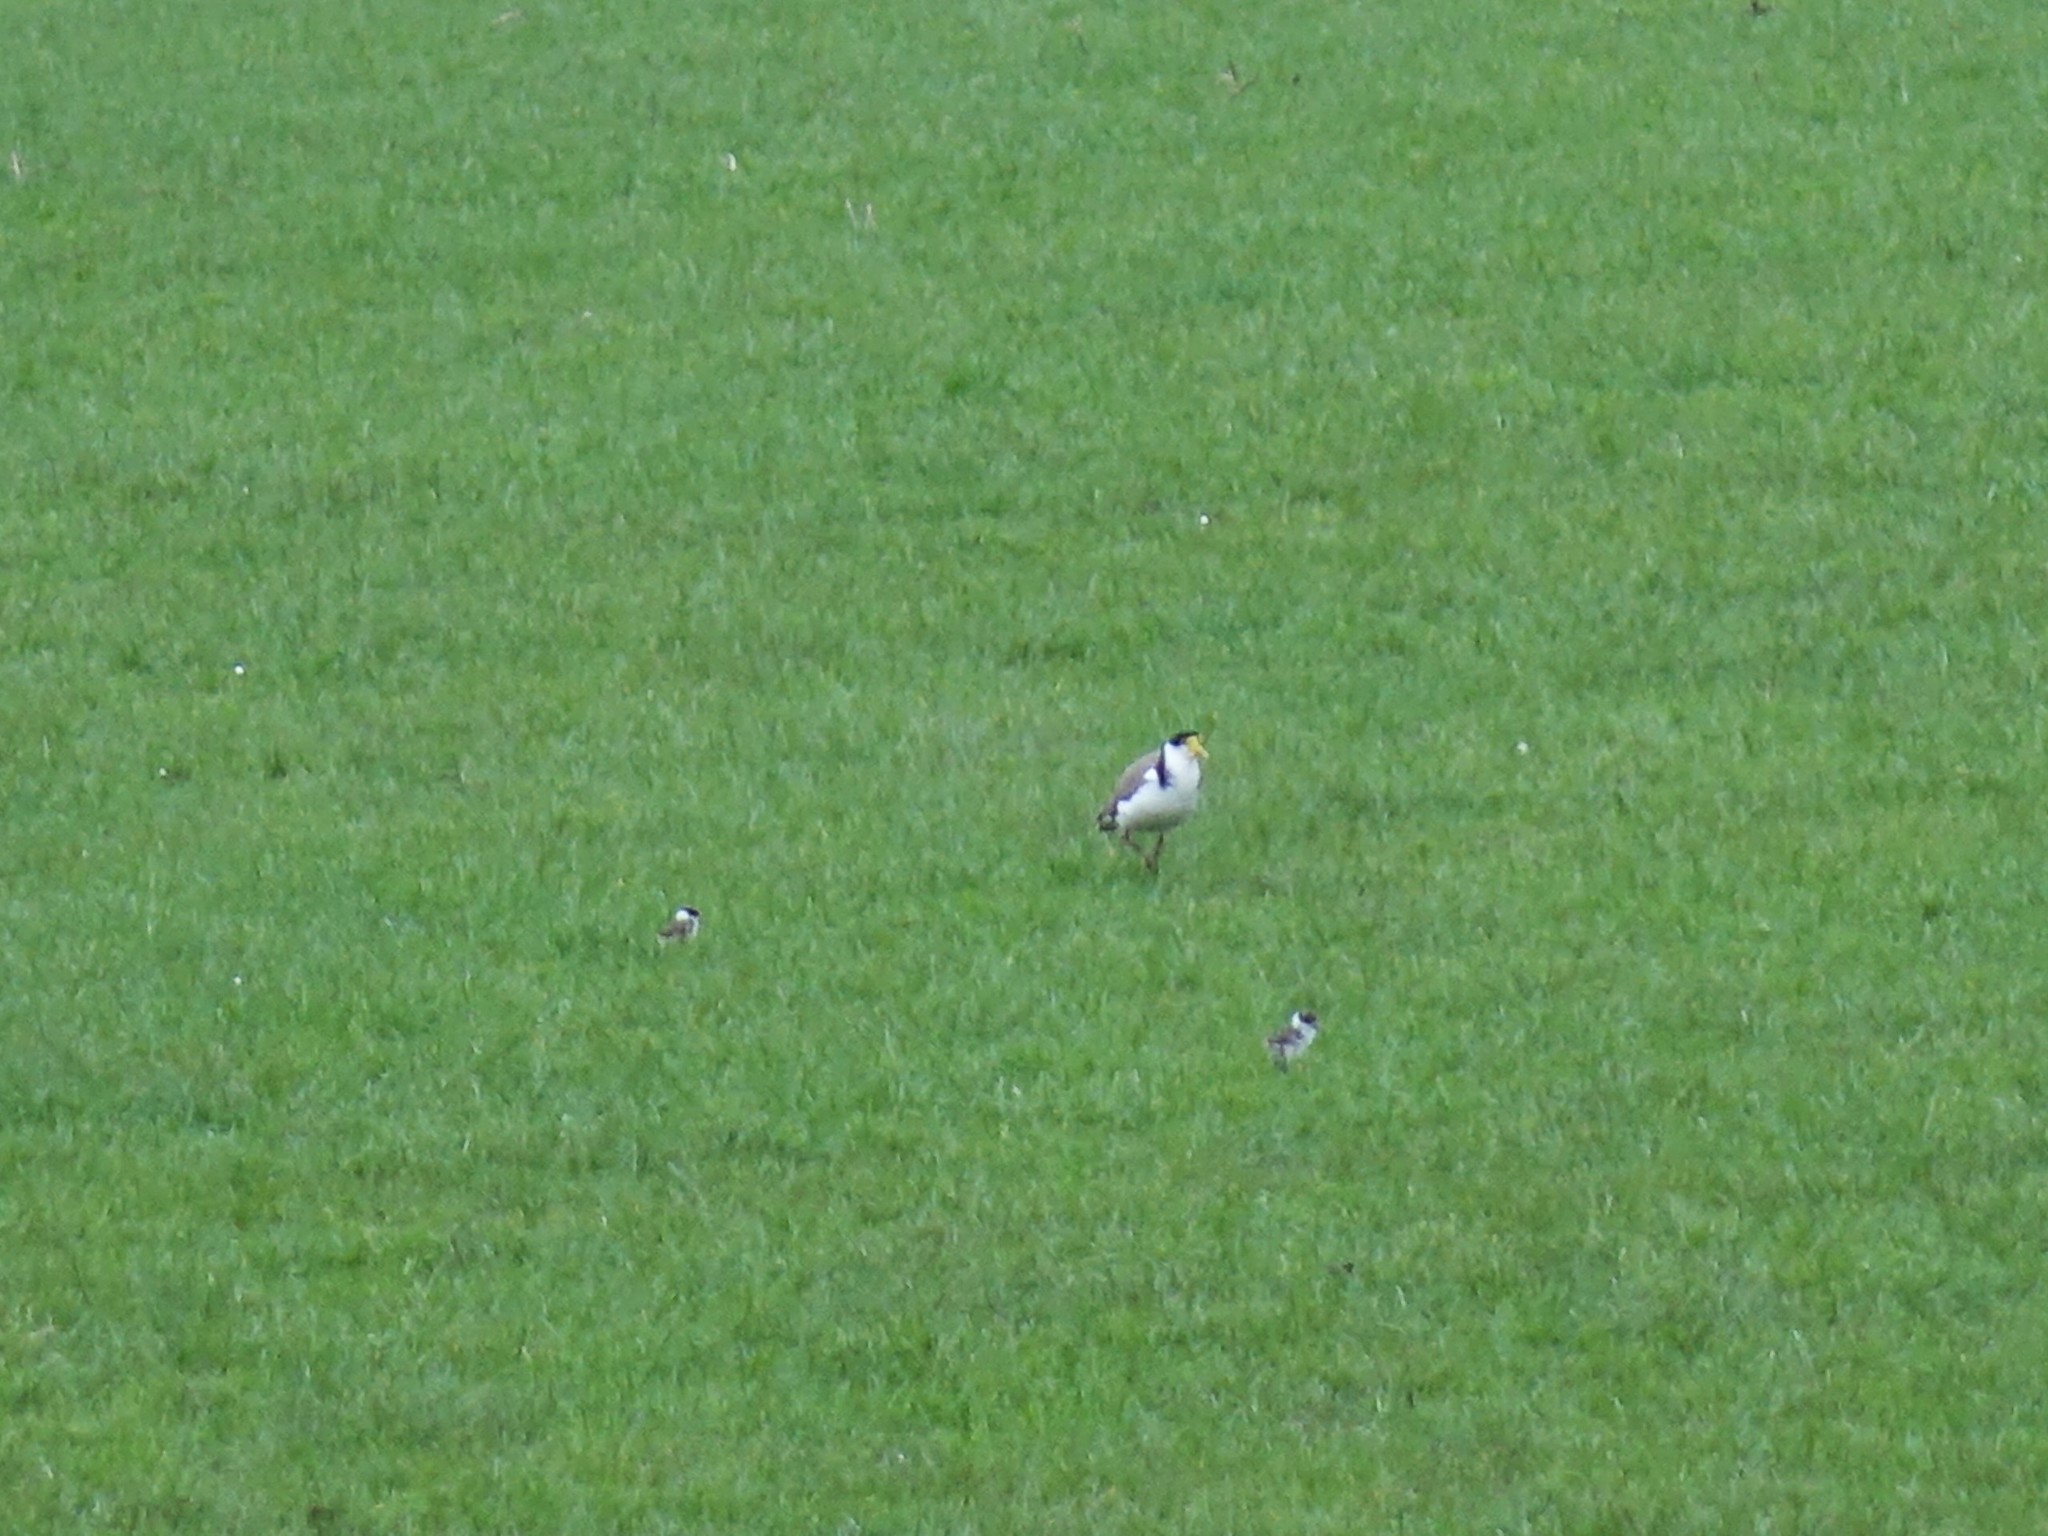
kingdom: Animalia
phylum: Chordata
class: Aves
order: Charadriiformes
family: Charadriidae
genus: Vanellus
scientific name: Vanellus miles
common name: Masked lapwing
